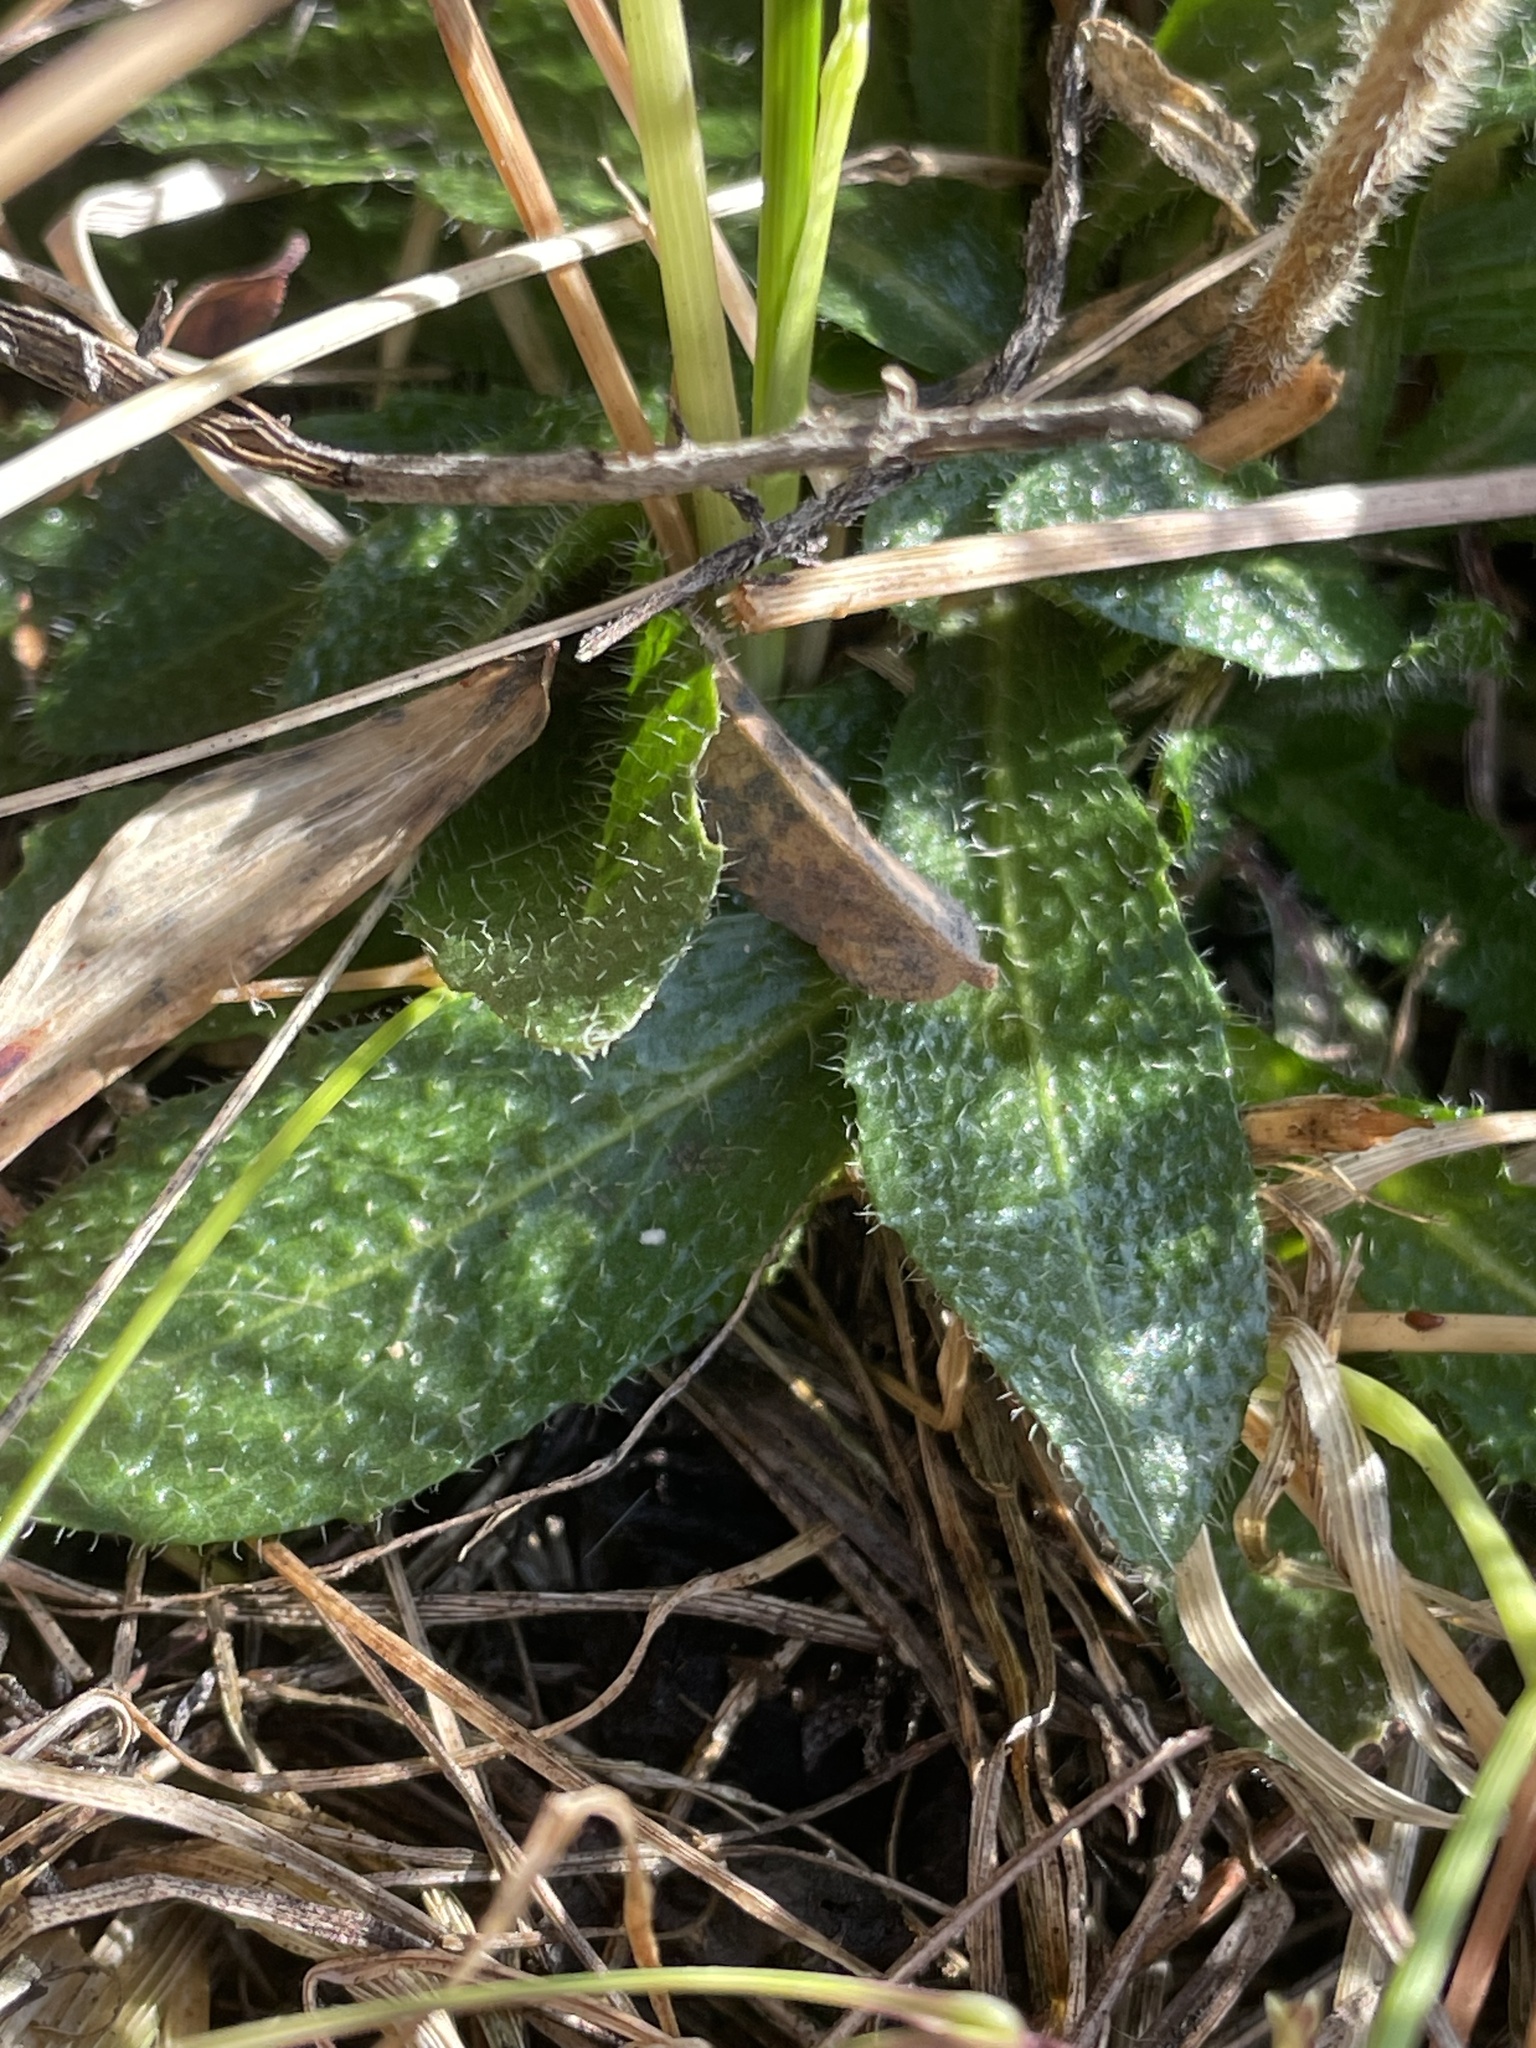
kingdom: Plantae
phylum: Tracheophyta
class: Magnoliopsida
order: Brassicales
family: Brassicaceae
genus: Arabis
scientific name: Arabis pycnocarpa
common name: Blushing rockcress
